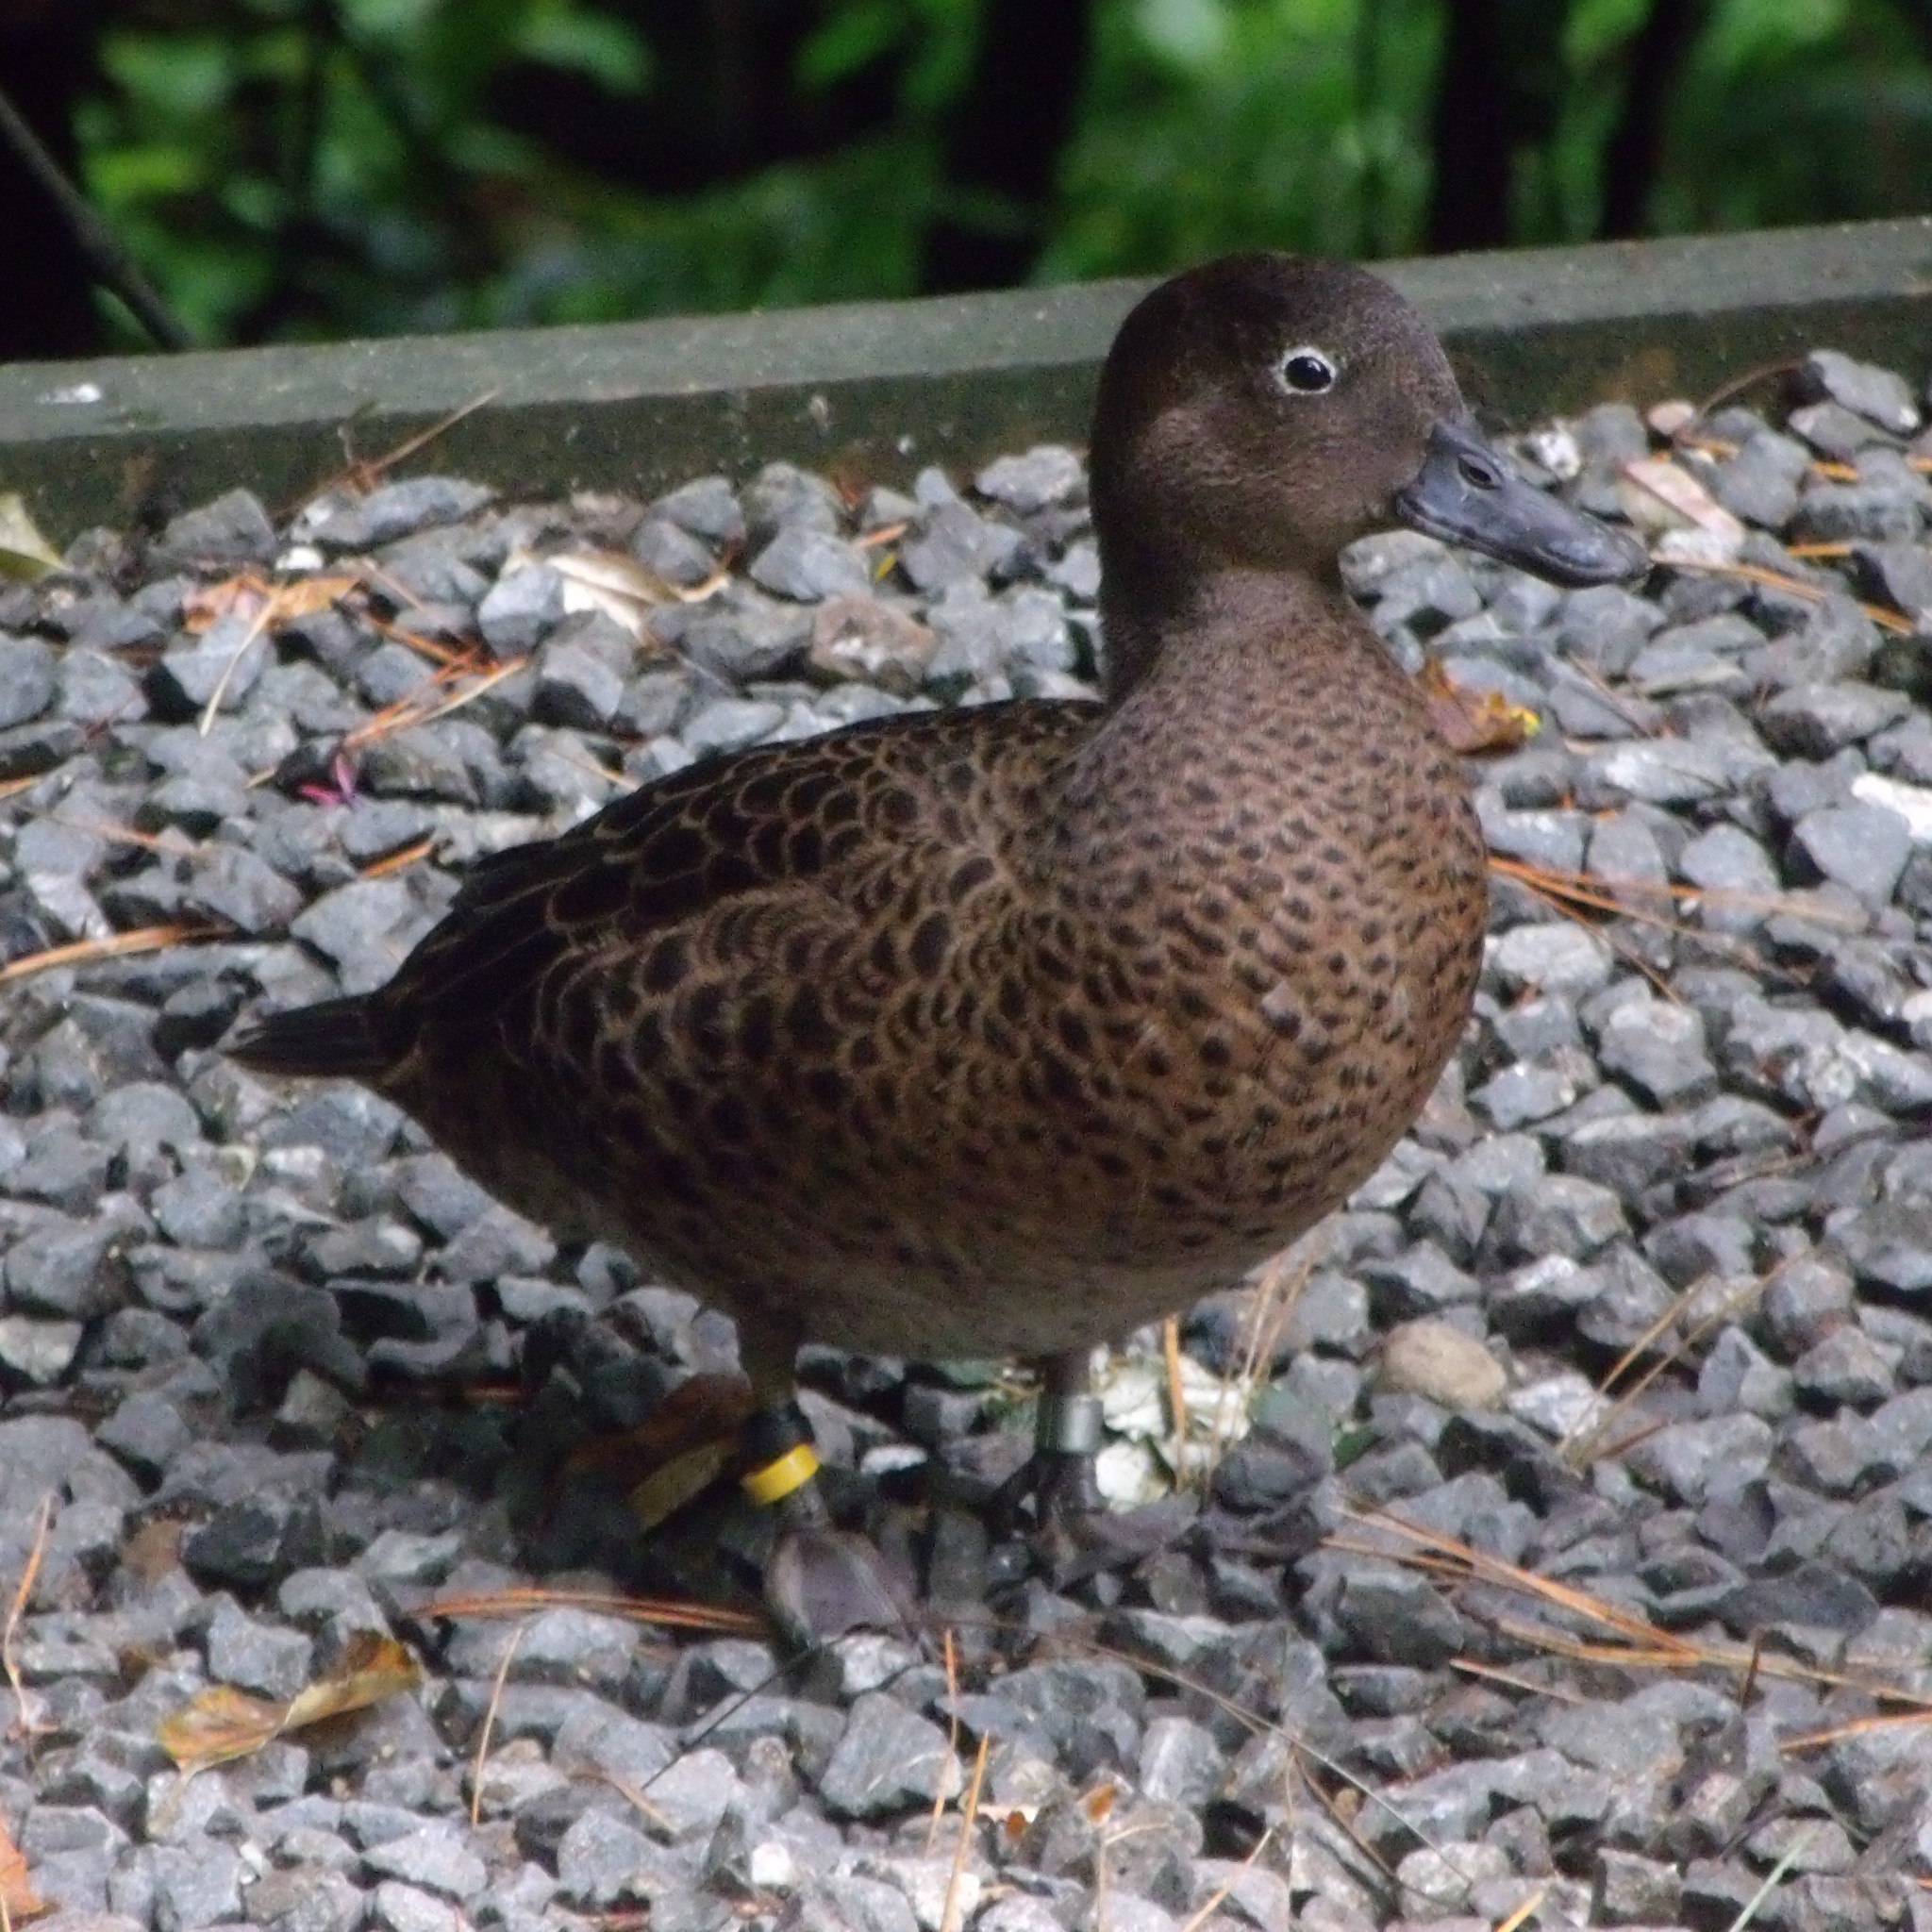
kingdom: Animalia
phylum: Chordata
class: Aves
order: Anseriformes
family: Anatidae
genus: Anas
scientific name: Anas chlorotis
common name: Brown teal
